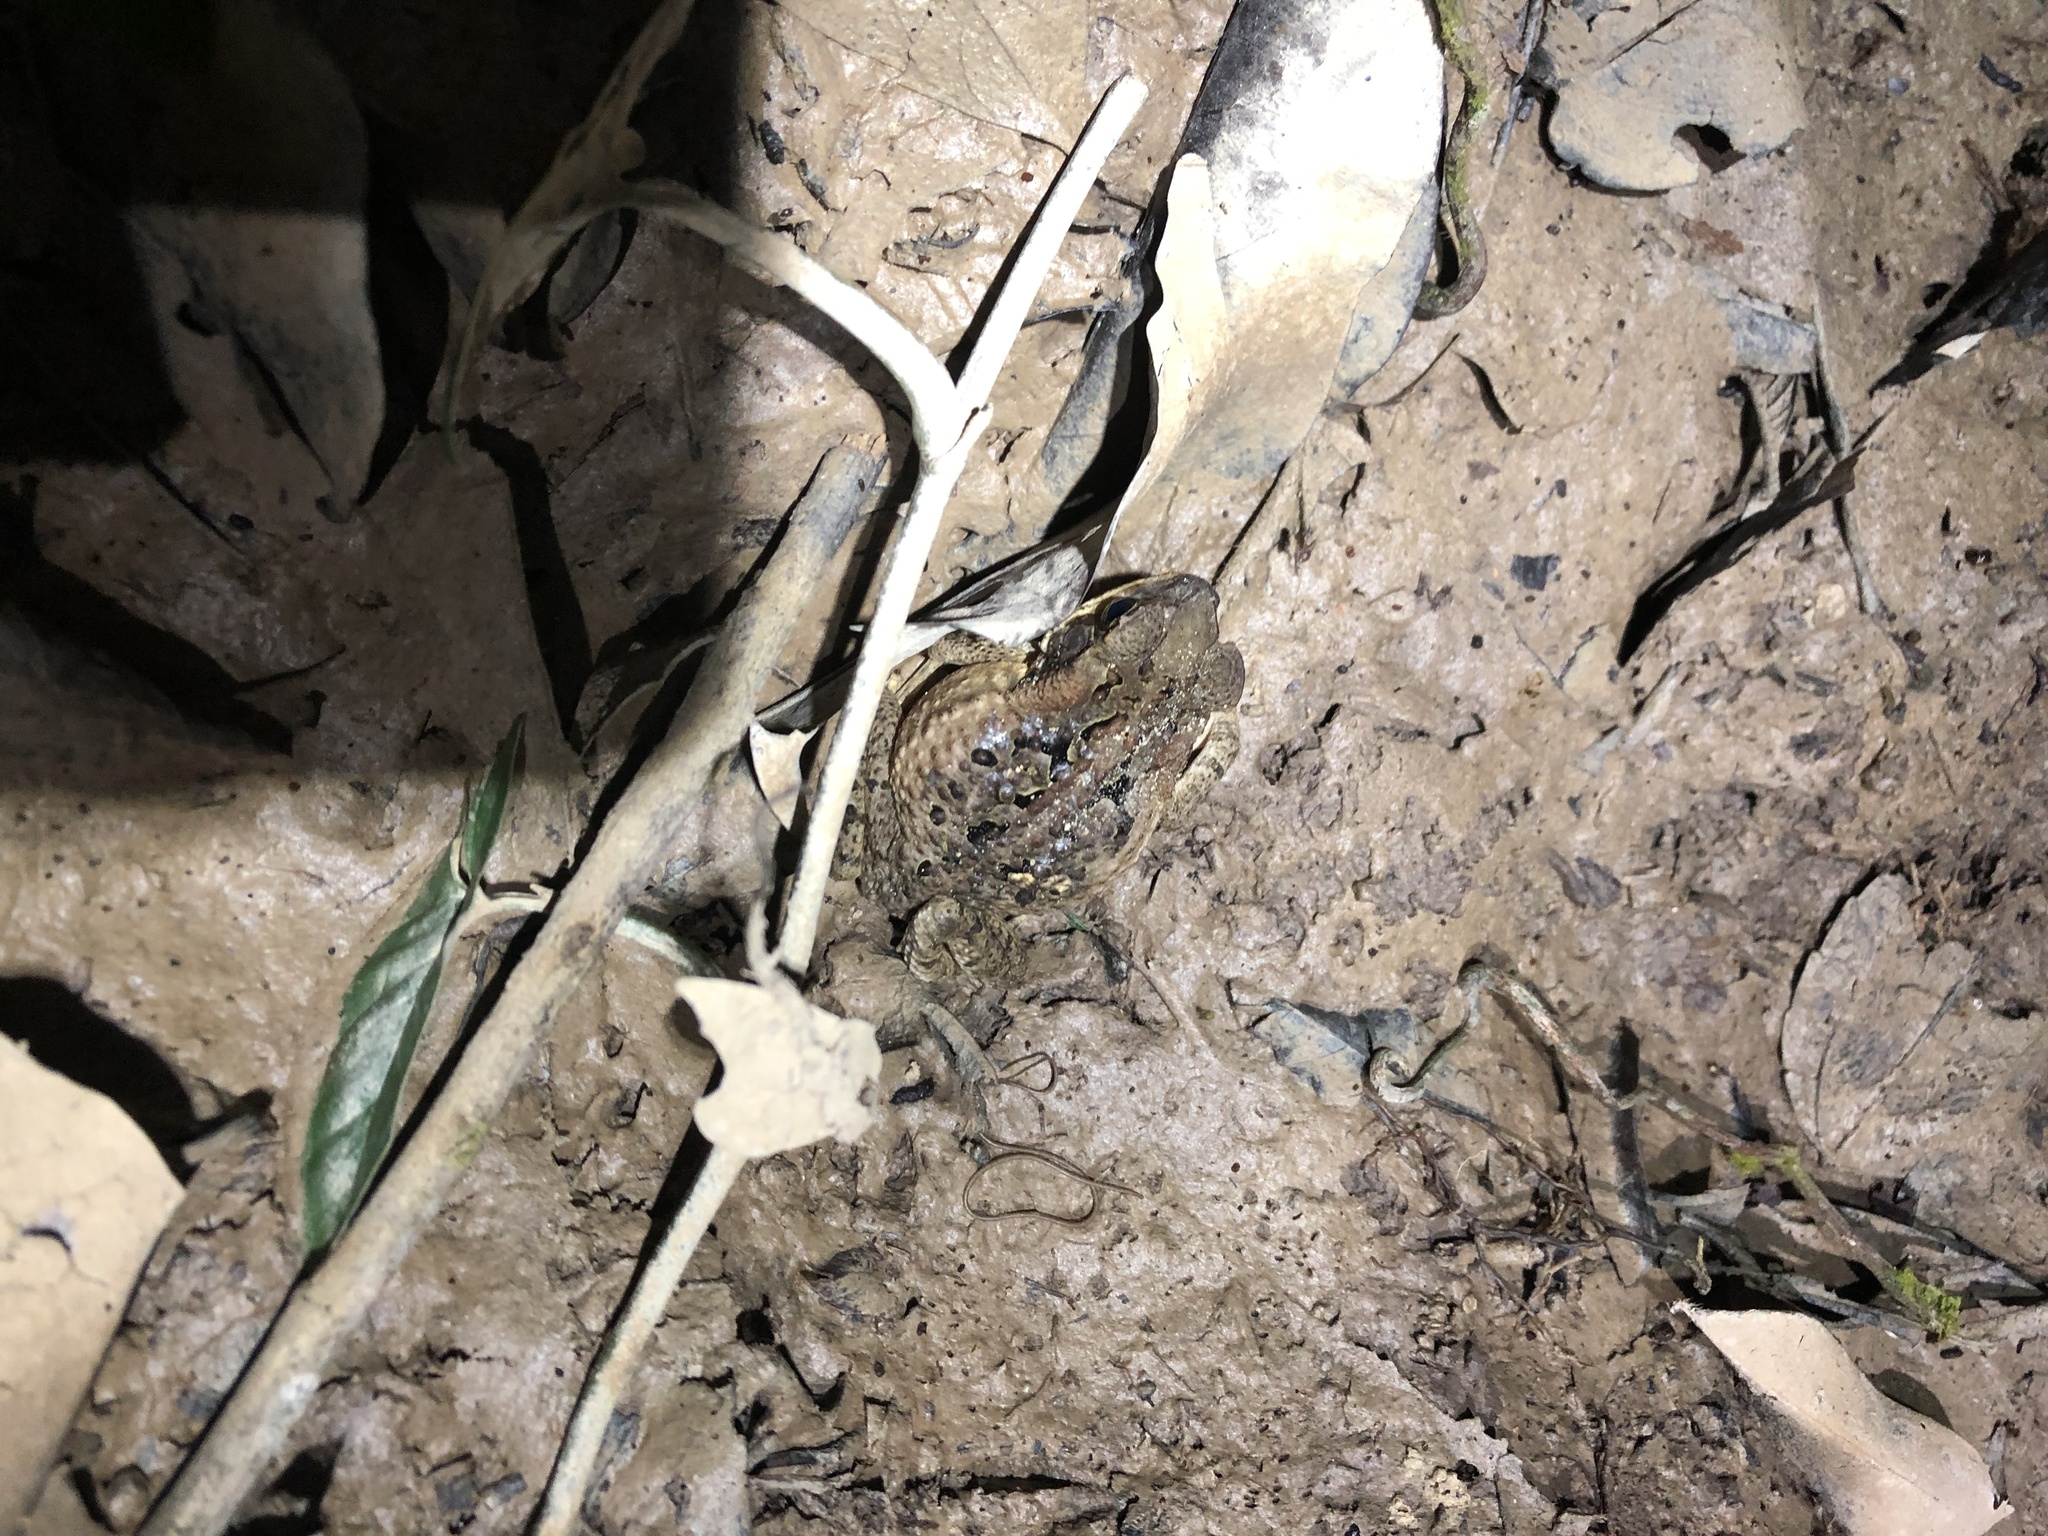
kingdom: Animalia
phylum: Chordata
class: Amphibia
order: Anura
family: Bufonidae
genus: Rhinella
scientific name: Rhinella marina
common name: Cane toad
